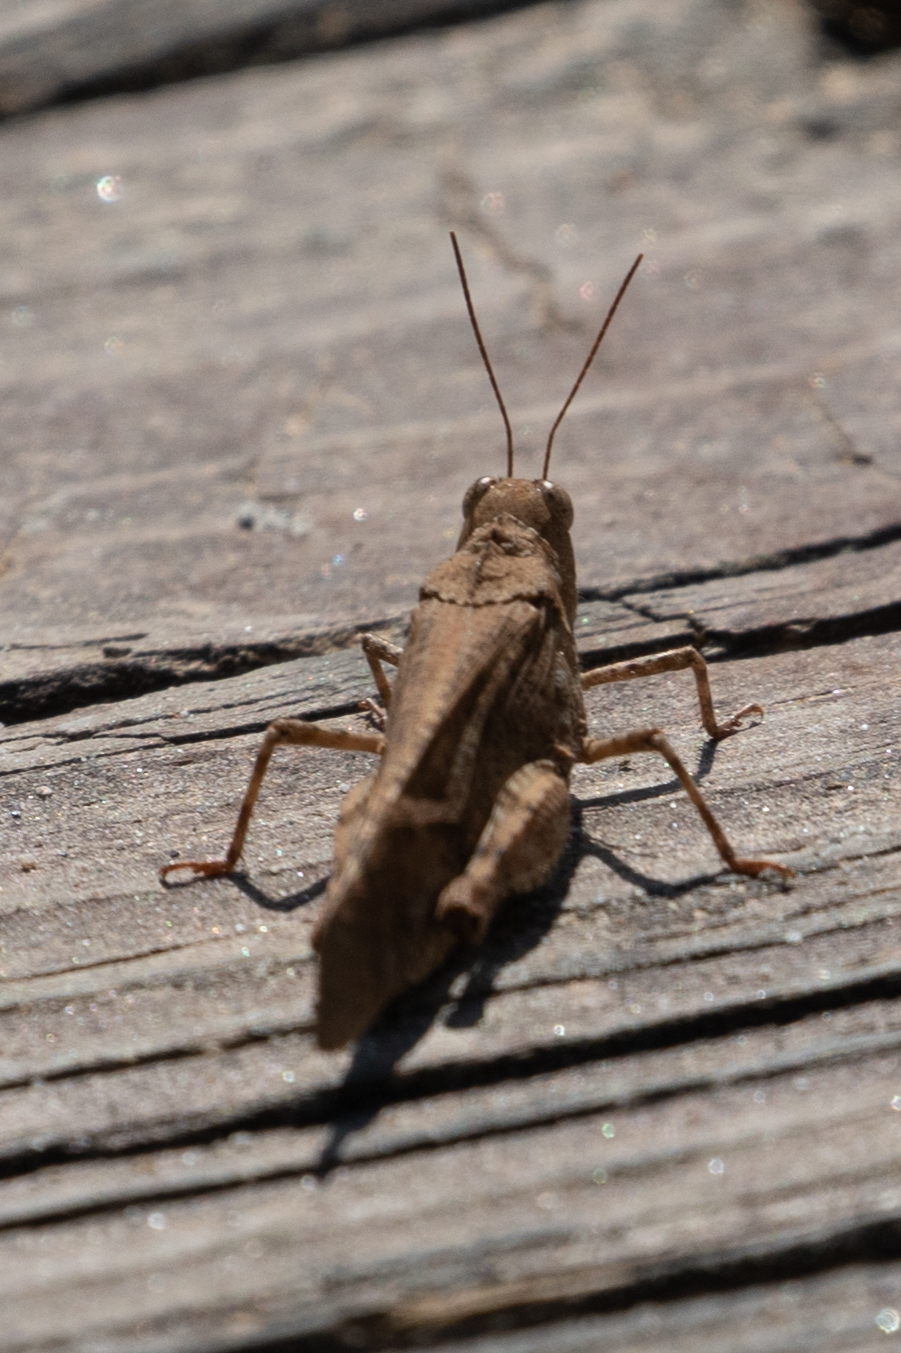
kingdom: Animalia
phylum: Arthropoda
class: Insecta
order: Orthoptera
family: Acrididae
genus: Dissosteira
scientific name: Dissosteira carolina
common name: Carolina grasshopper
